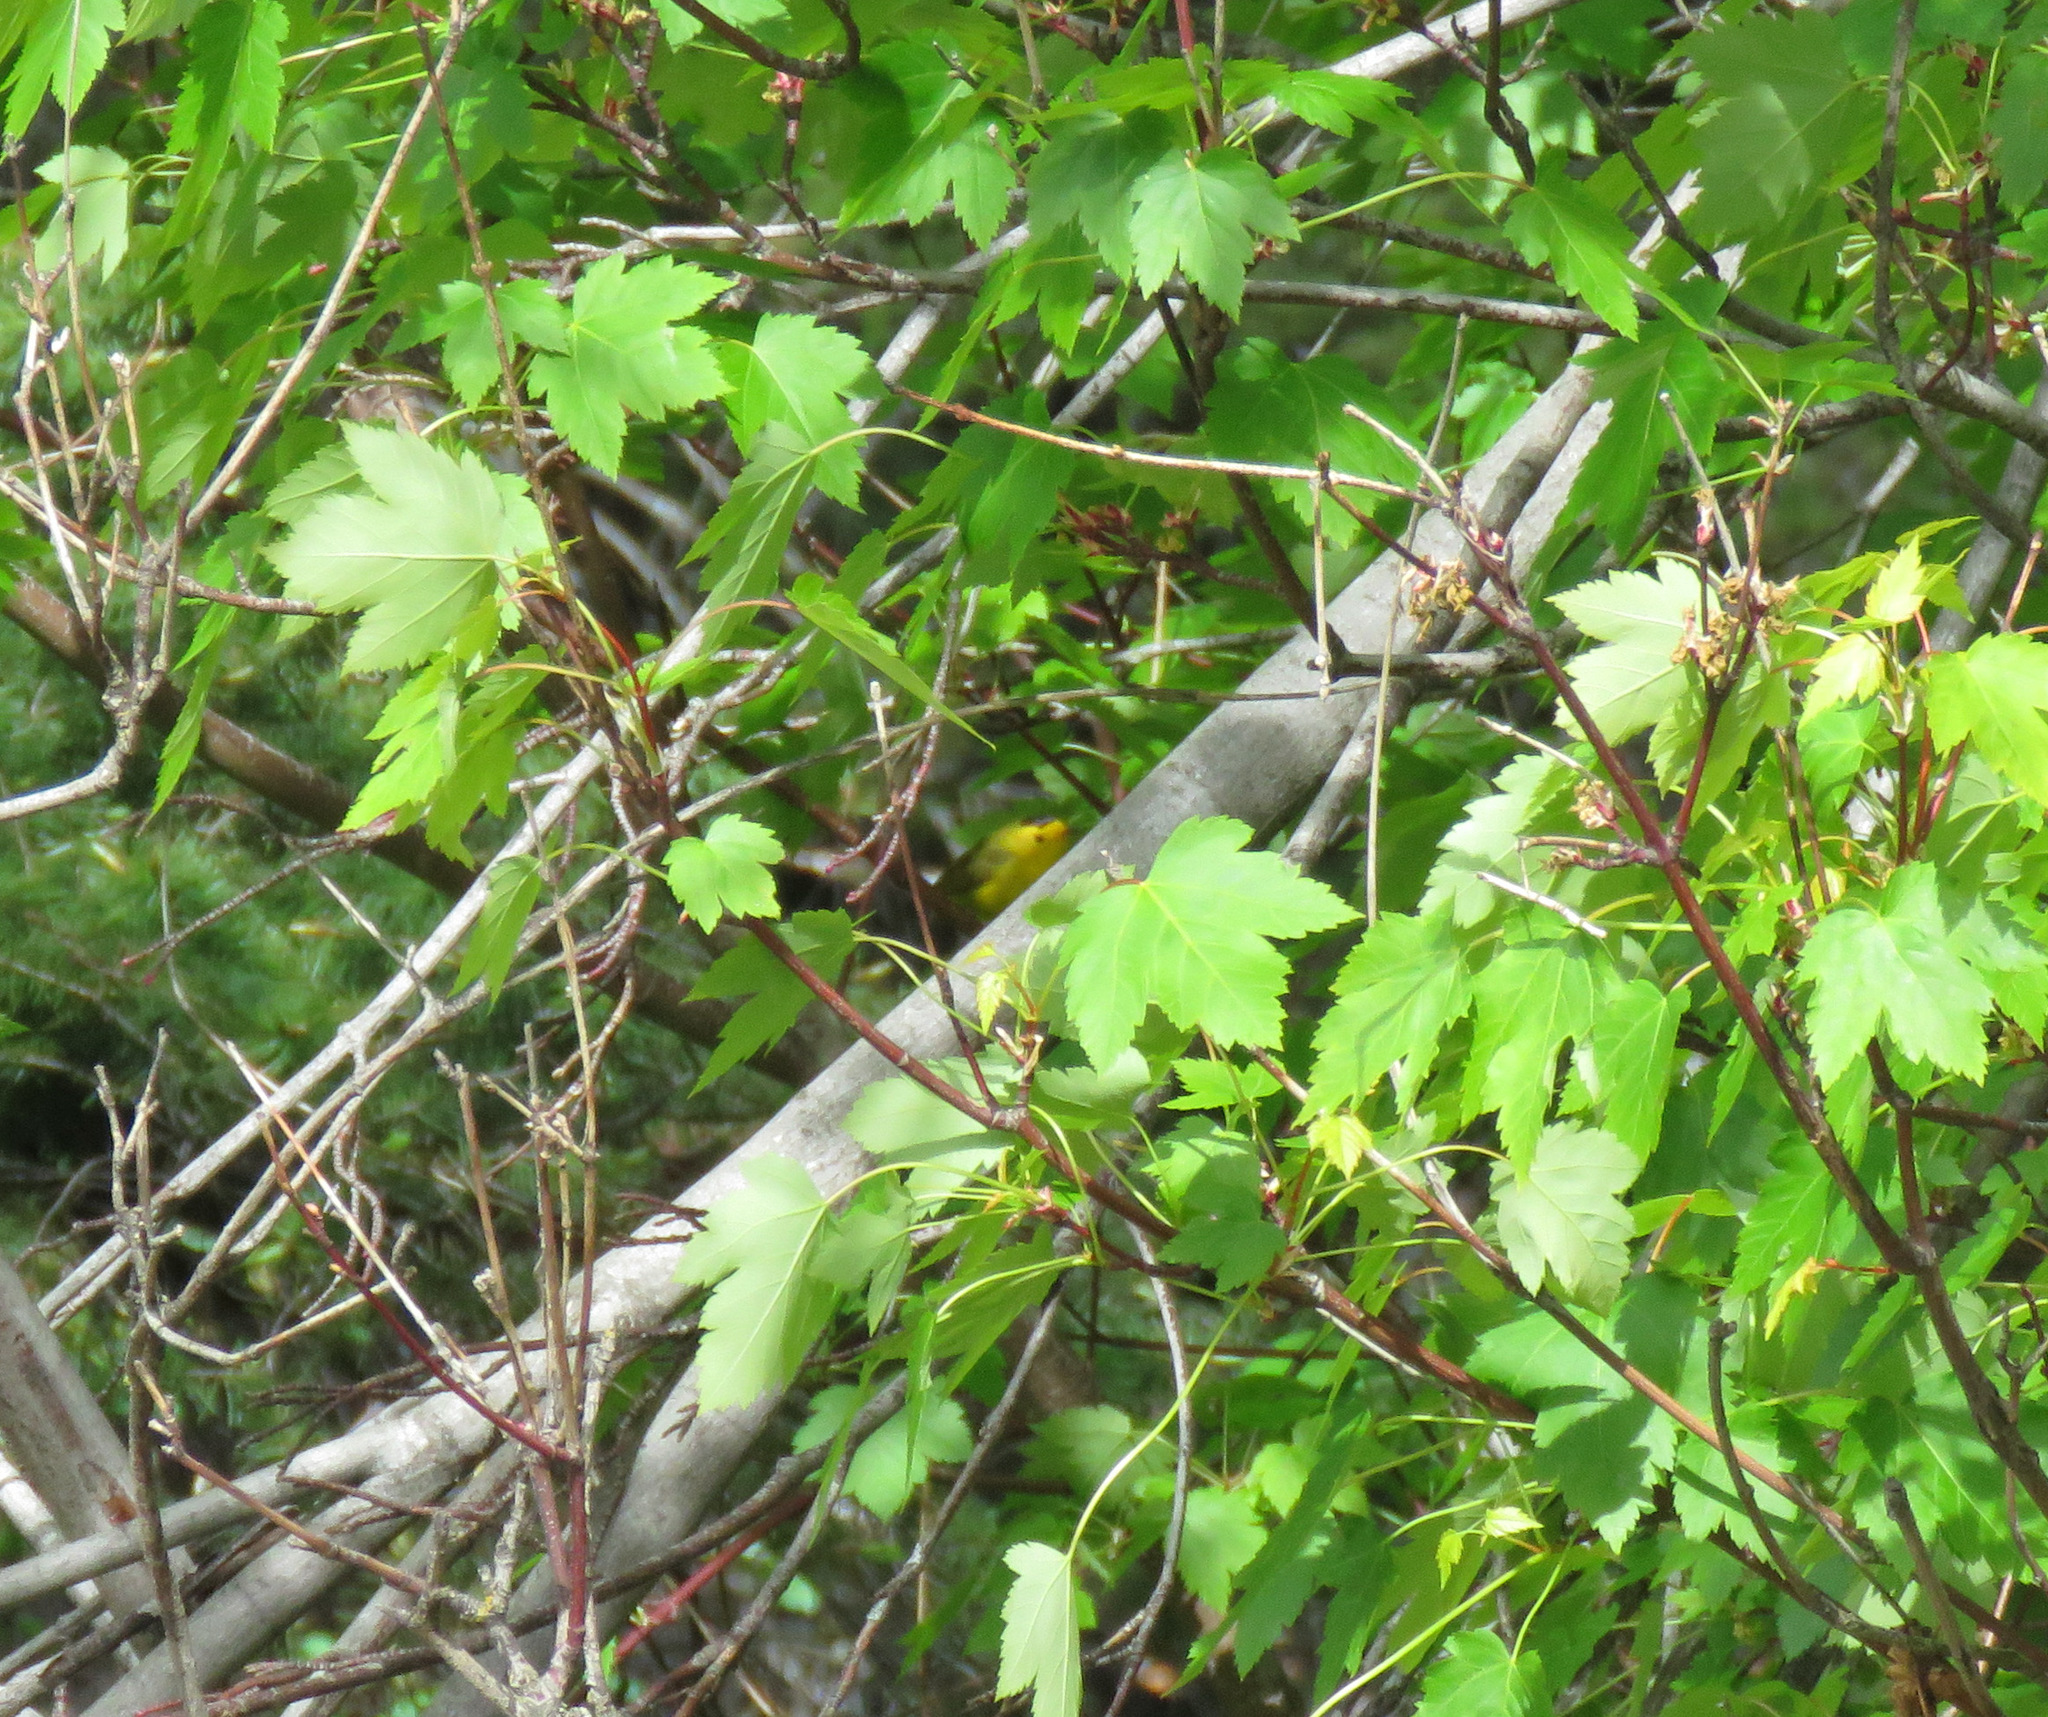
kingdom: Animalia
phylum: Chordata
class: Aves
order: Passeriformes
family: Parulidae
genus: Cardellina
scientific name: Cardellina pusilla
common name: Wilson's warbler
